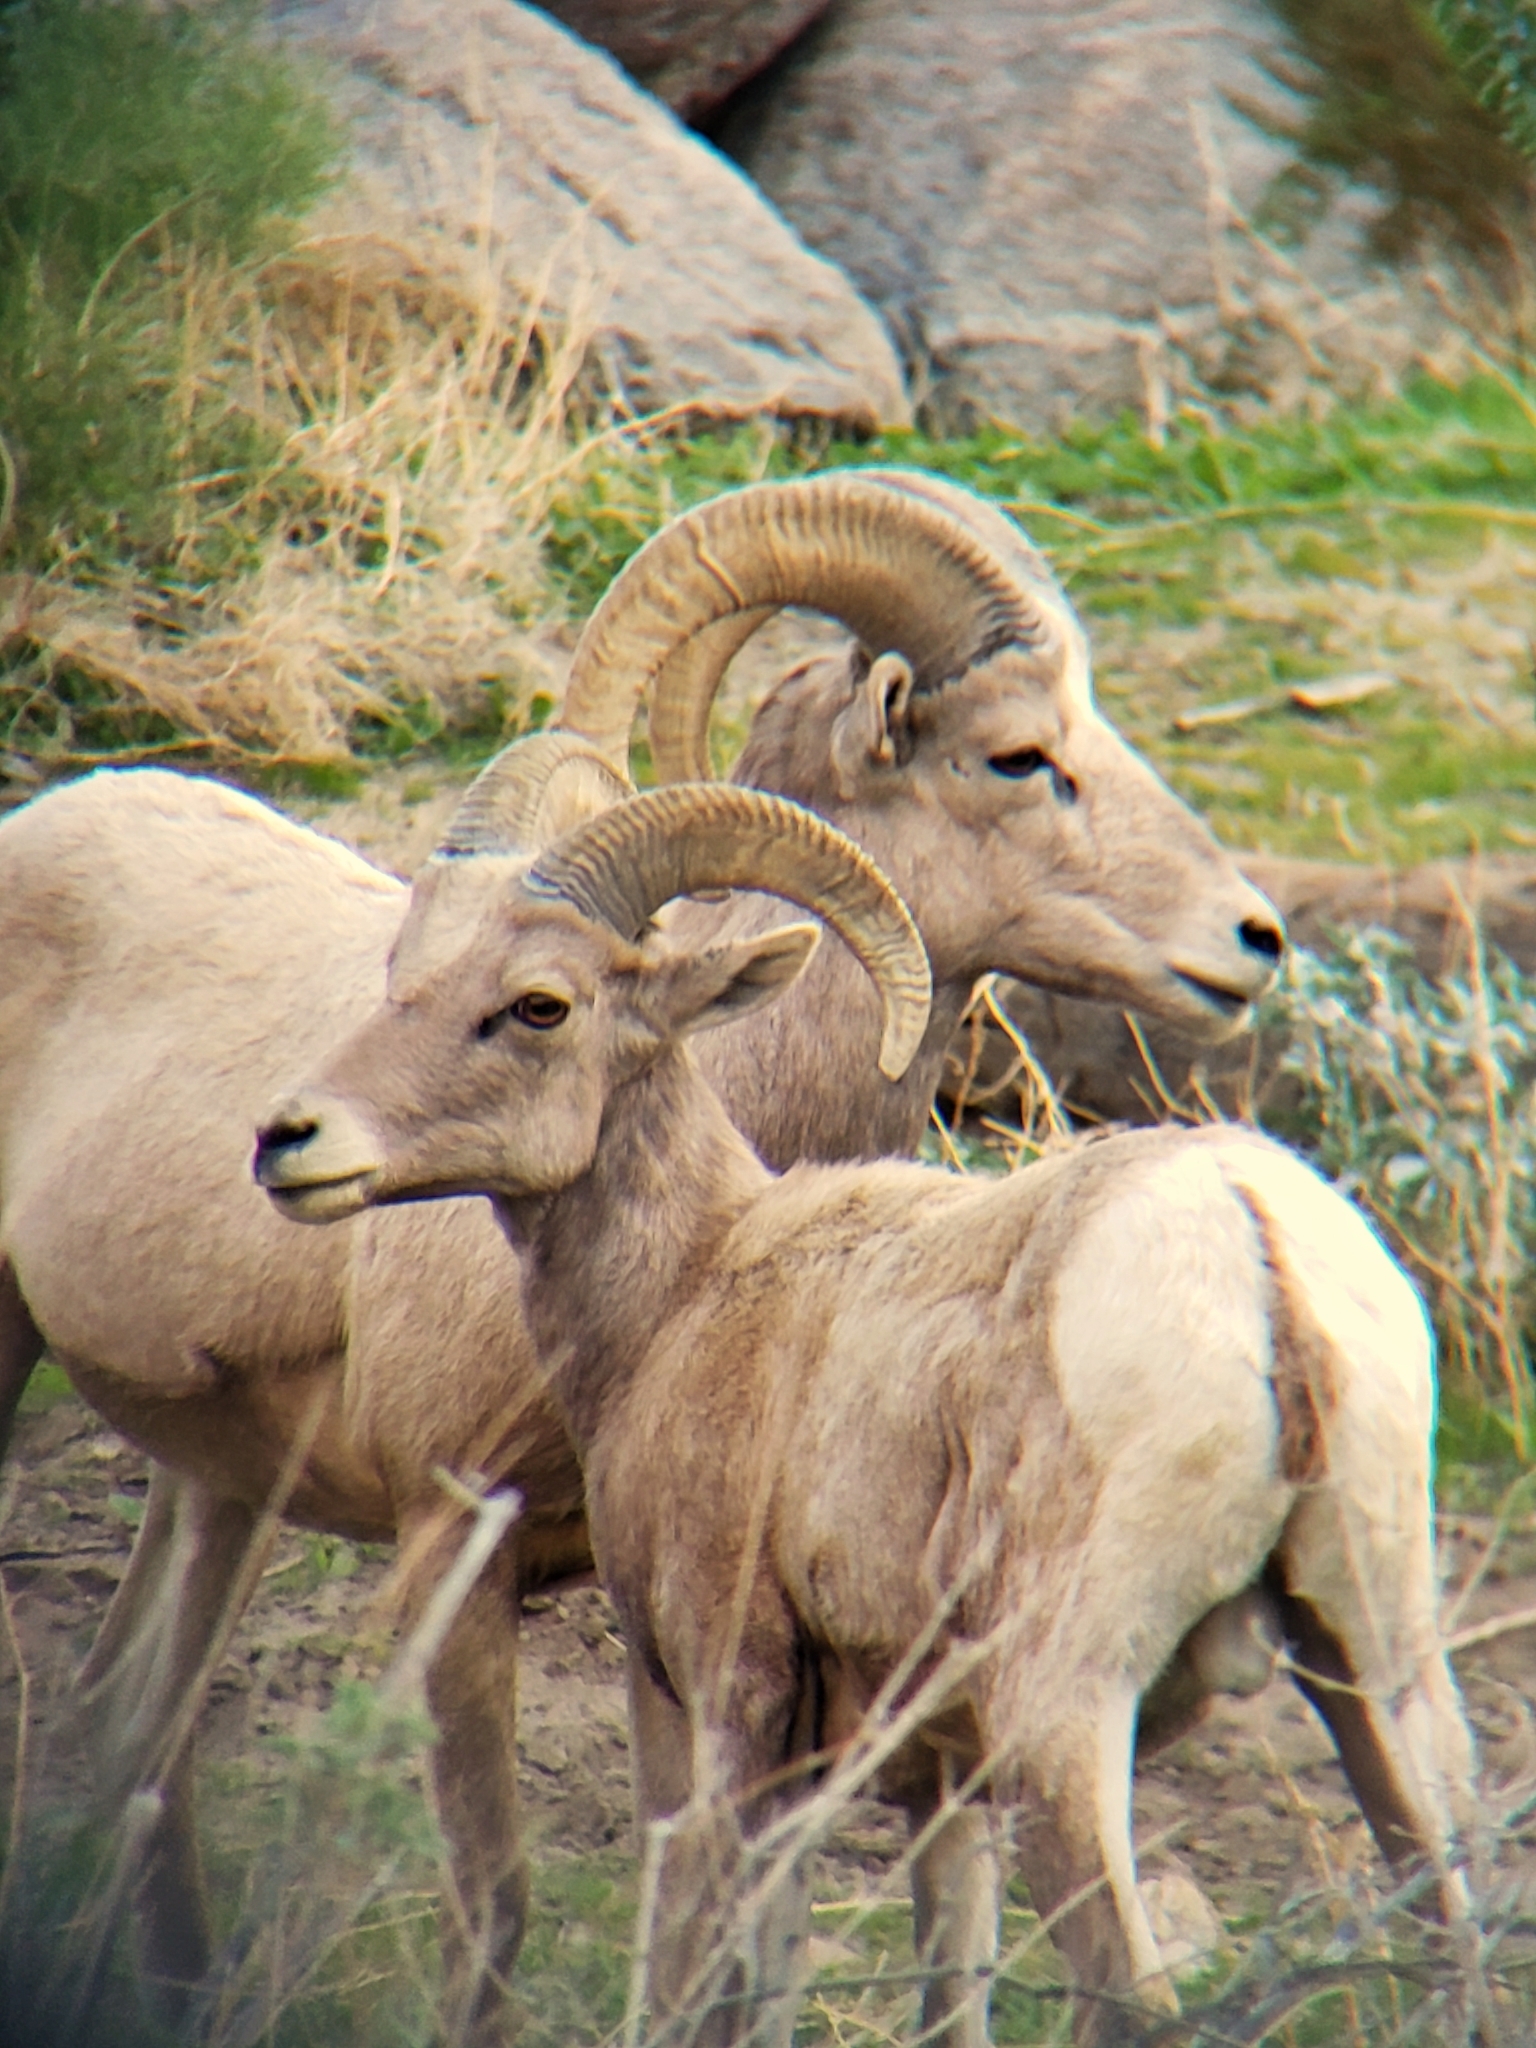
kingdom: Animalia
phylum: Chordata
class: Mammalia
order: Artiodactyla
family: Bovidae
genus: Ovis
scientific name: Ovis canadensis
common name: Bighorn sheep
